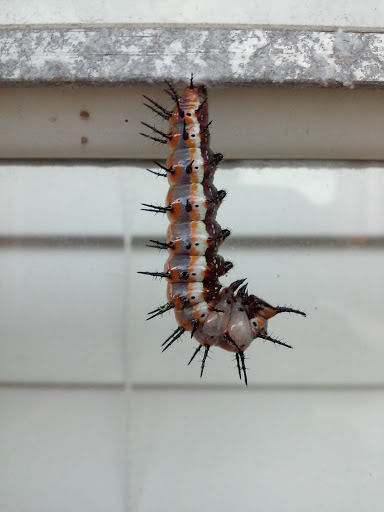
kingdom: Animalia
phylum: Arthropoda
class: Insecta
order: Lepidoptera
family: Nymphalidae
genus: Dione
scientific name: Dione vanillae
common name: Gulf fritillary
